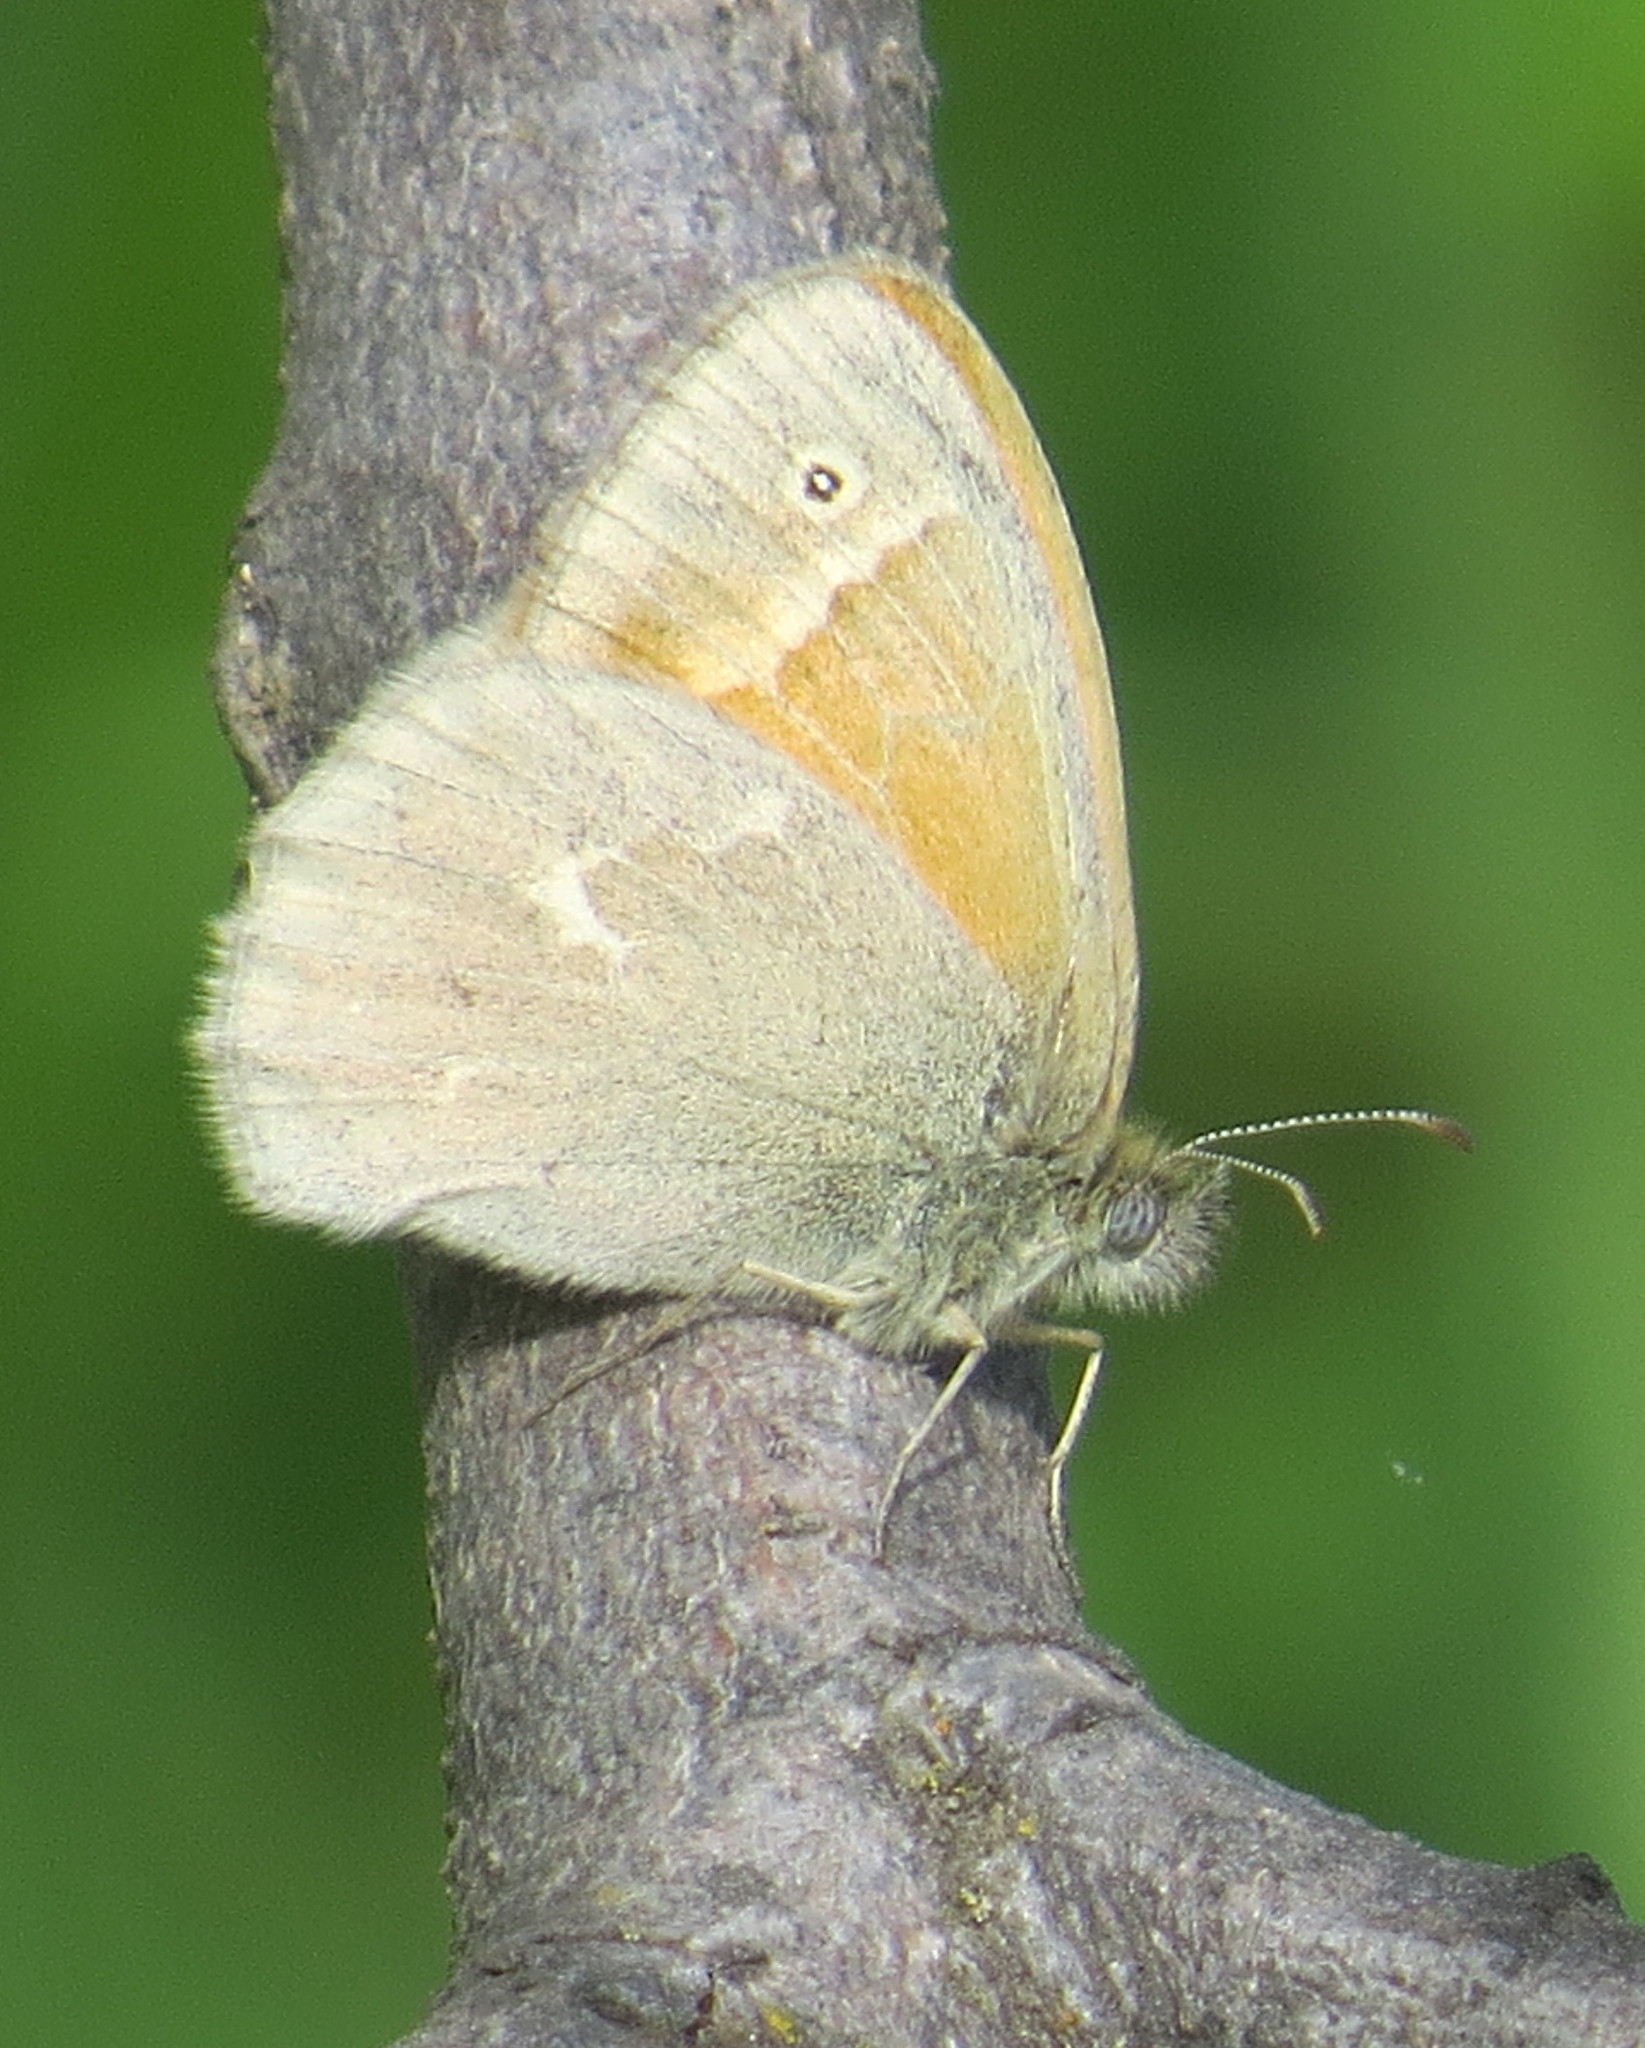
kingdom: Animalia
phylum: Arthropoda
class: Insecta
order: Lepidoptera
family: Nymphalidae
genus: Coenonympha
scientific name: Coenonympha california
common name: Common ringlet
